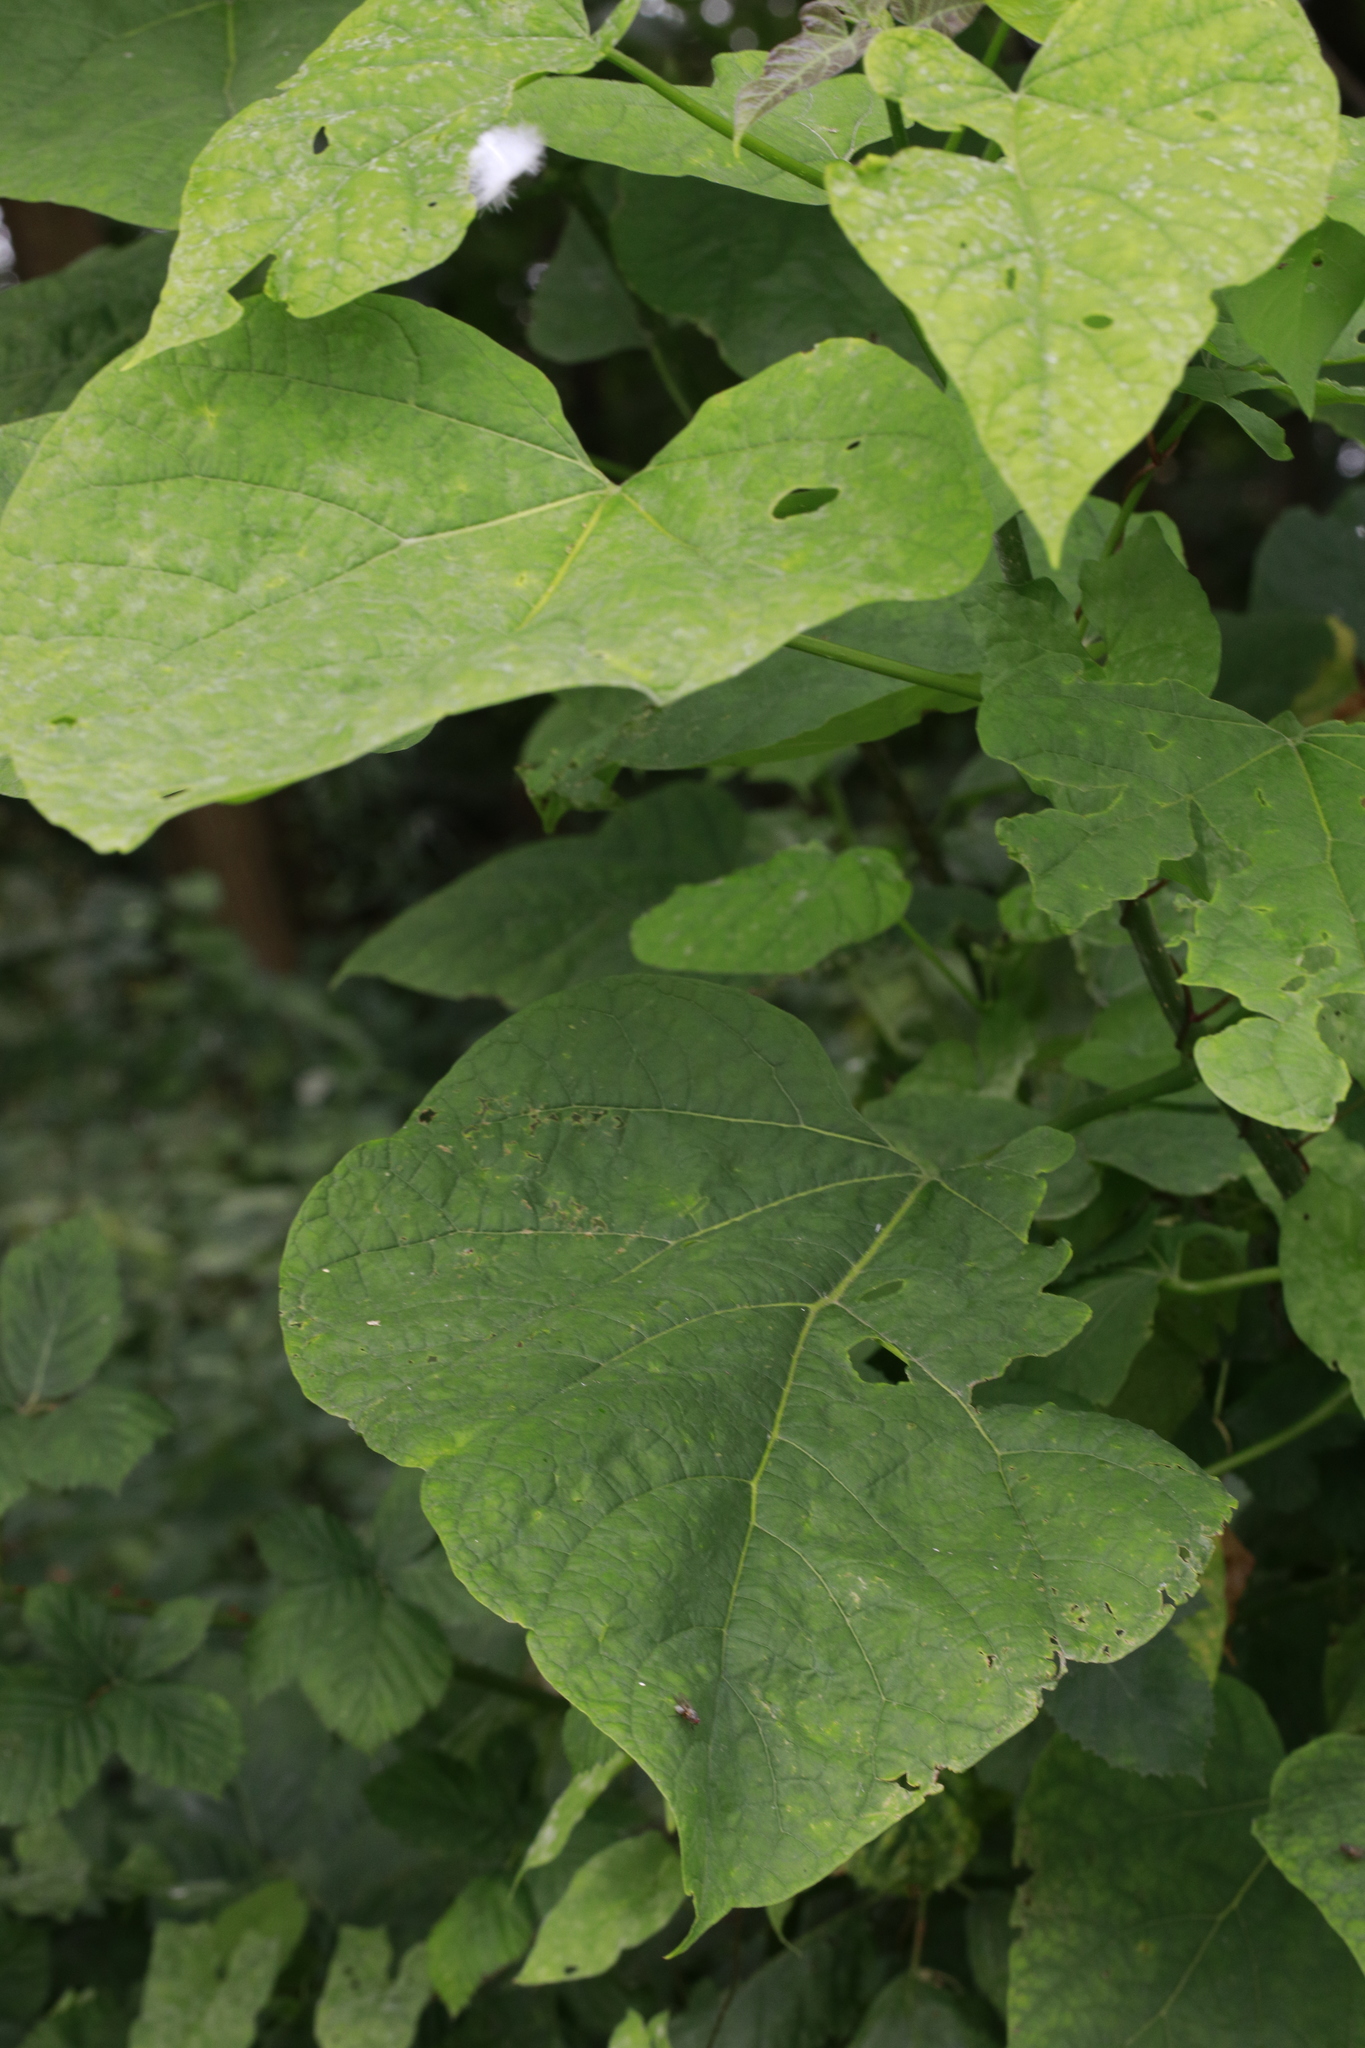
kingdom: Plantae
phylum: Tracheophyta
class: Magnoliopsida
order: Lamiales
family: Bignoniaceae
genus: Catalpa
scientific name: Catalpa bignonioides
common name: Southern catalpa
